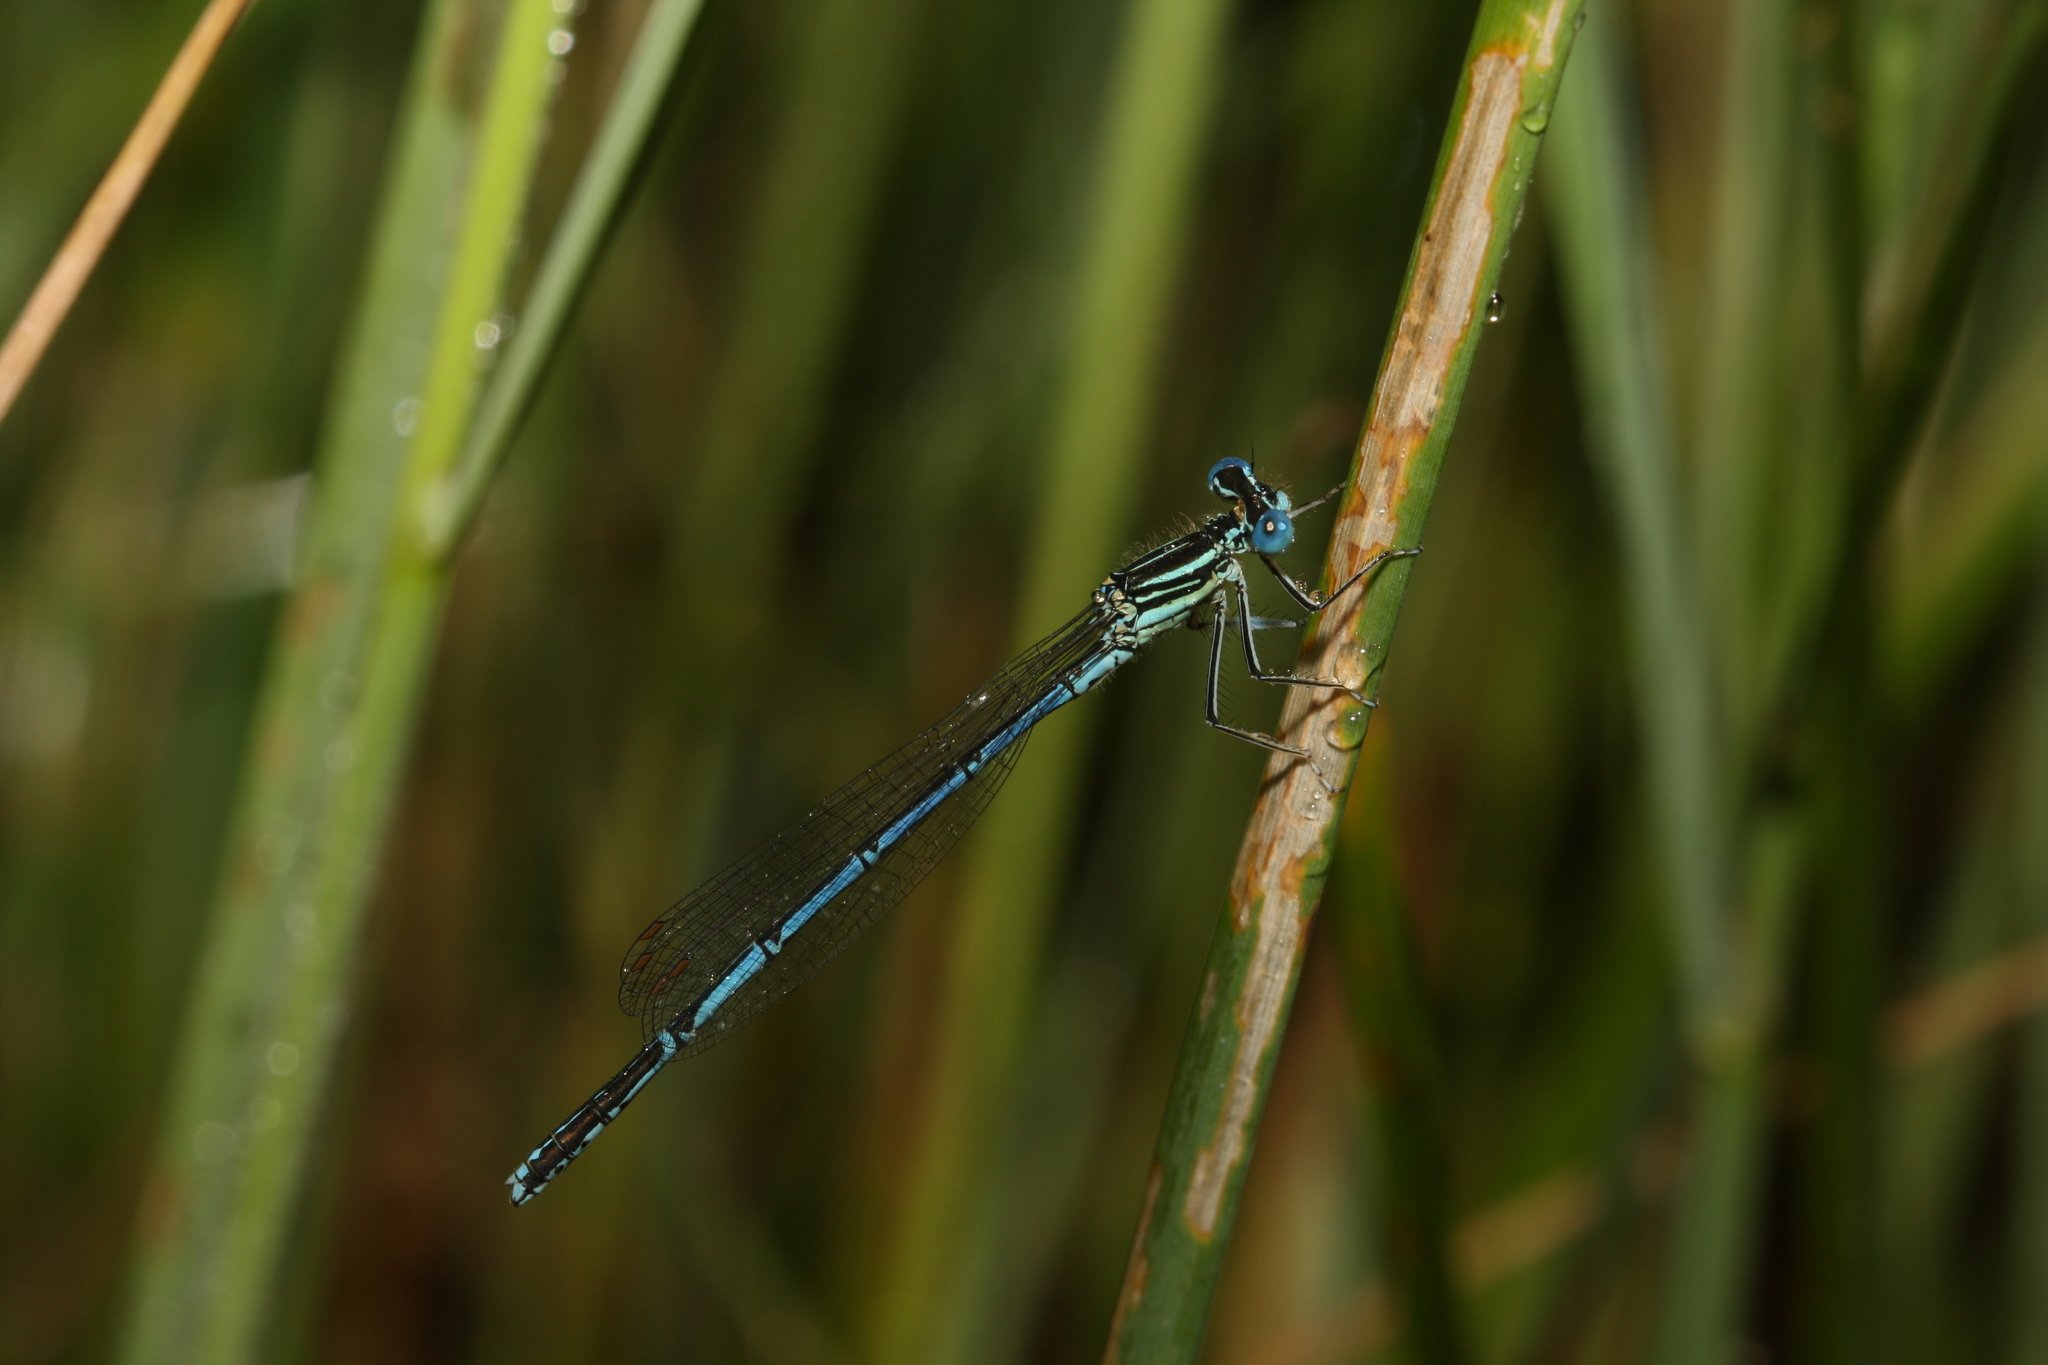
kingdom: Animalia
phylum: Arthropoda
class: Insecta
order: Odonata
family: Platycnemididae
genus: Platycnemis
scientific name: Platycnemis pennipes
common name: White-legged damselfly
